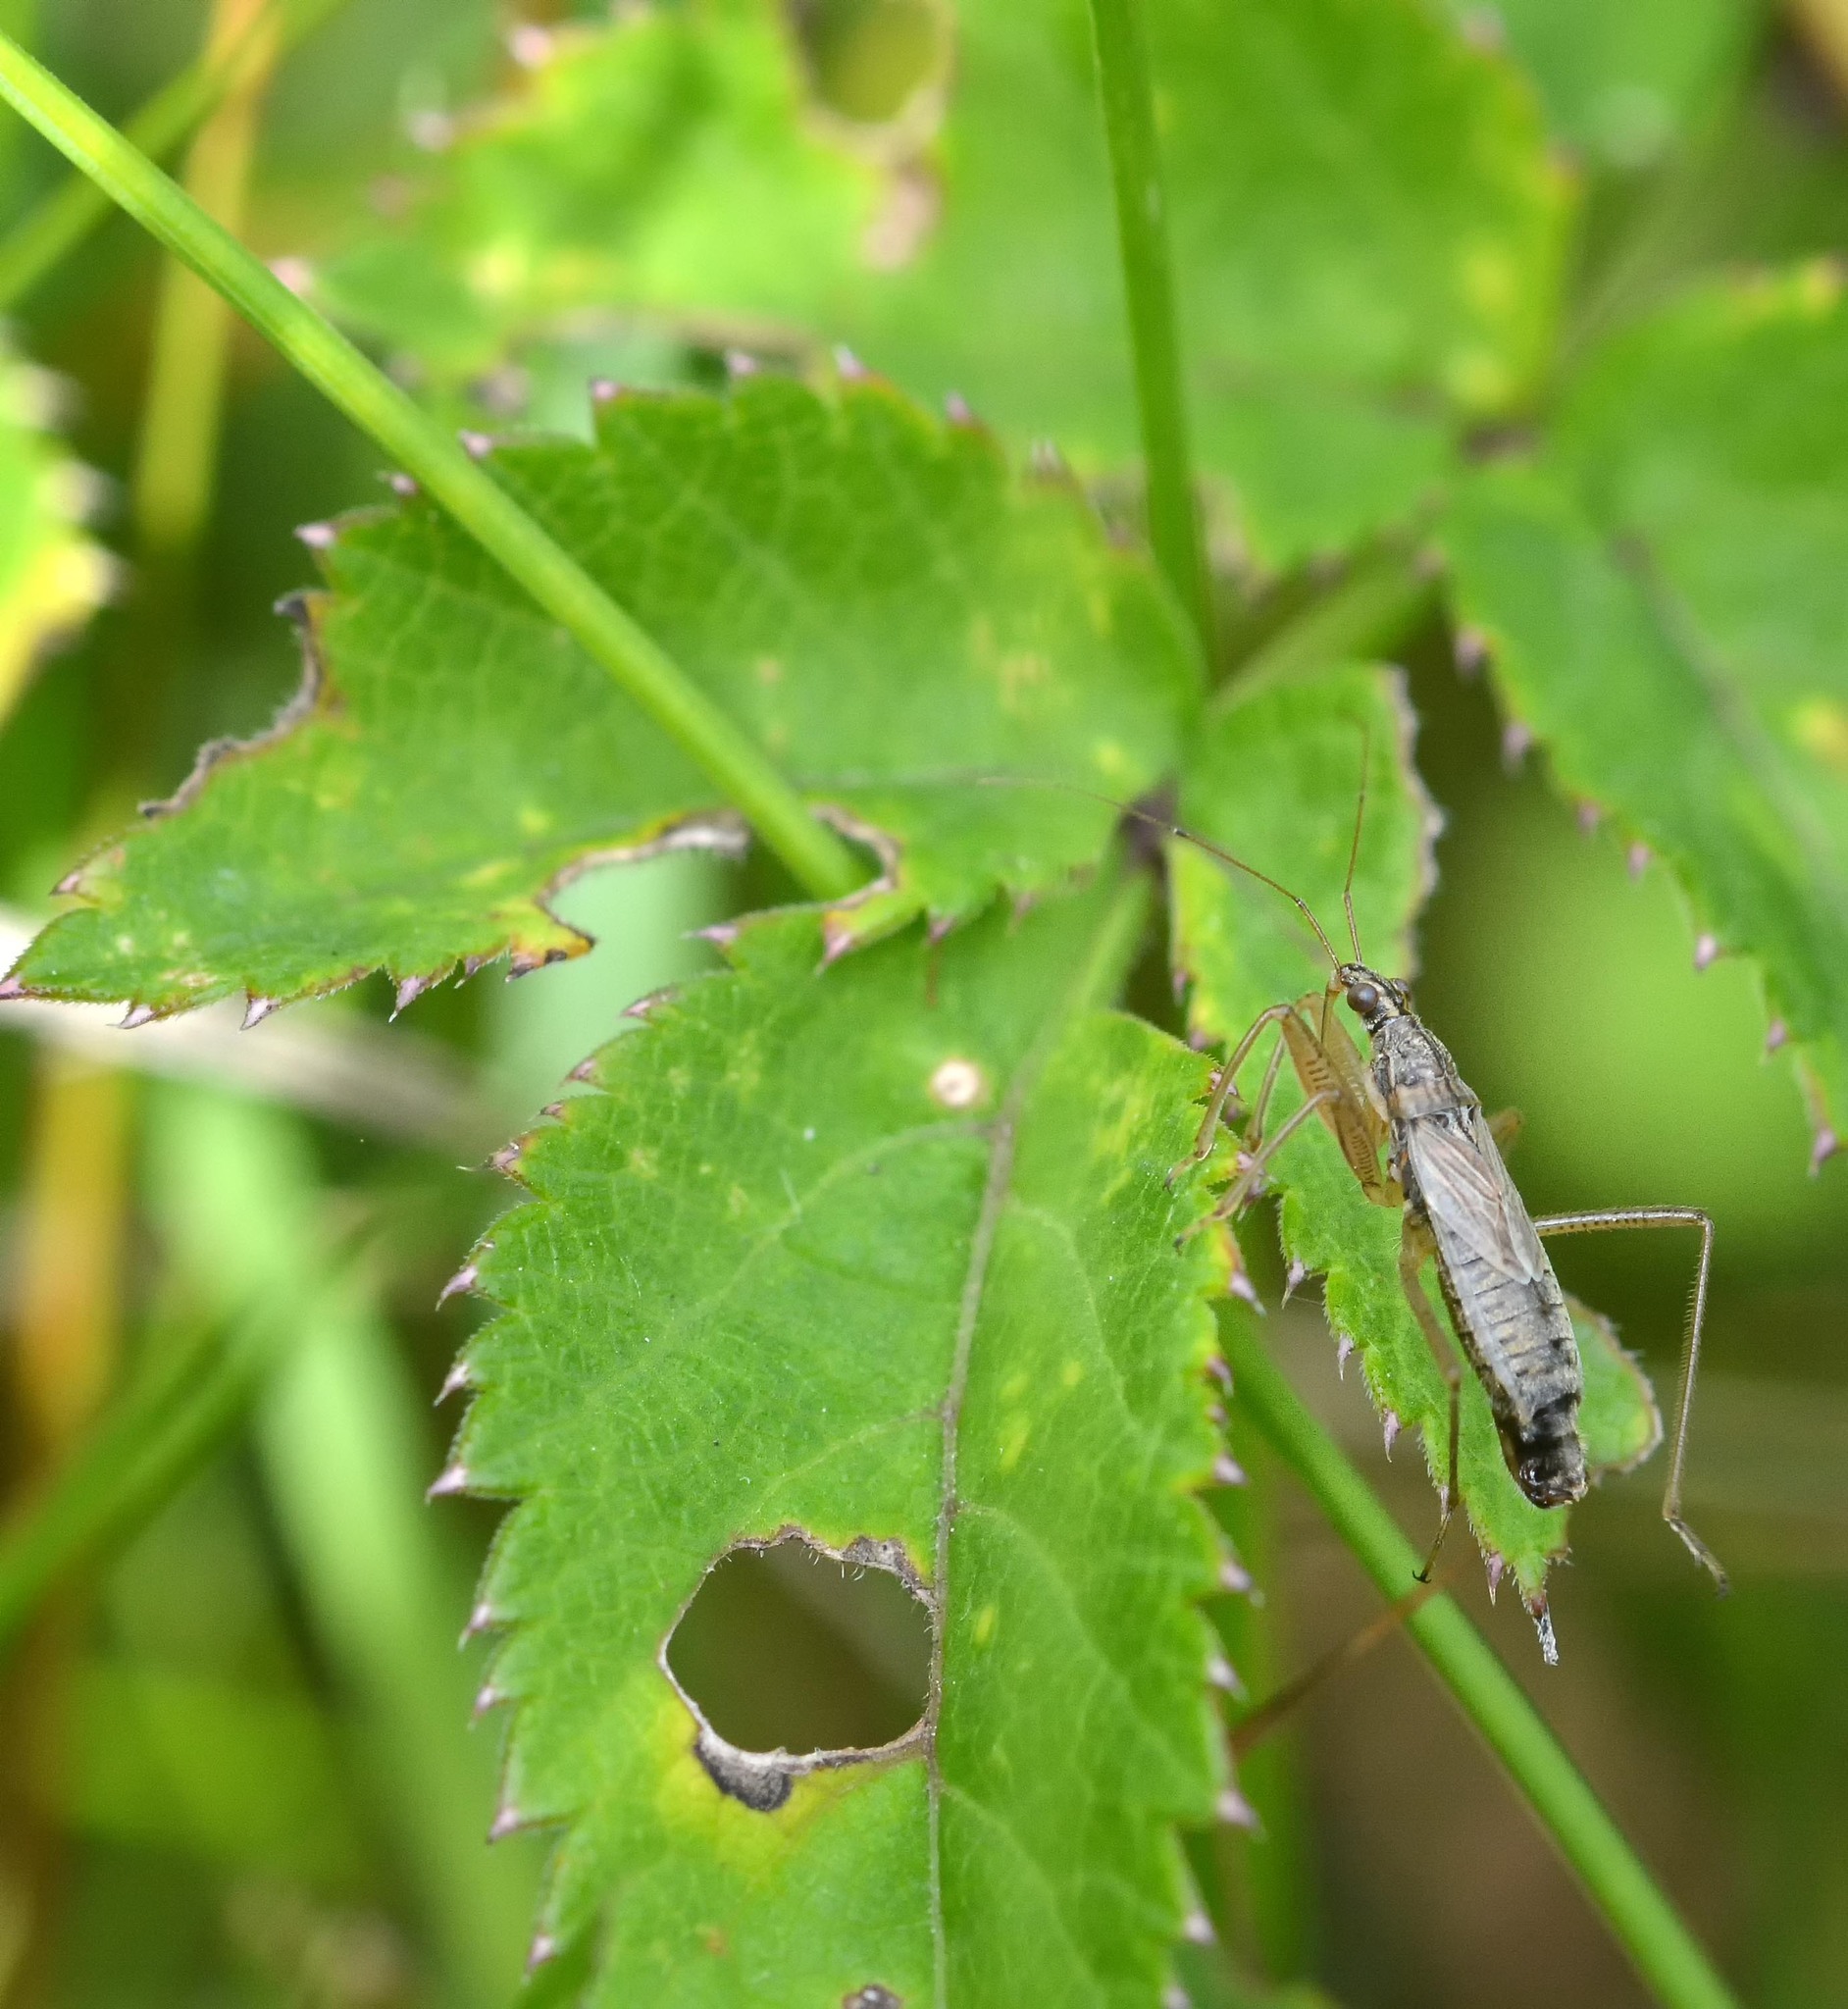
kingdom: Animalia
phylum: Arthropoda
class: Insecta
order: Hemiptera
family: Nabidae
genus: Nabis
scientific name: Nabis flavomarginatus
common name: Broad damselbug
